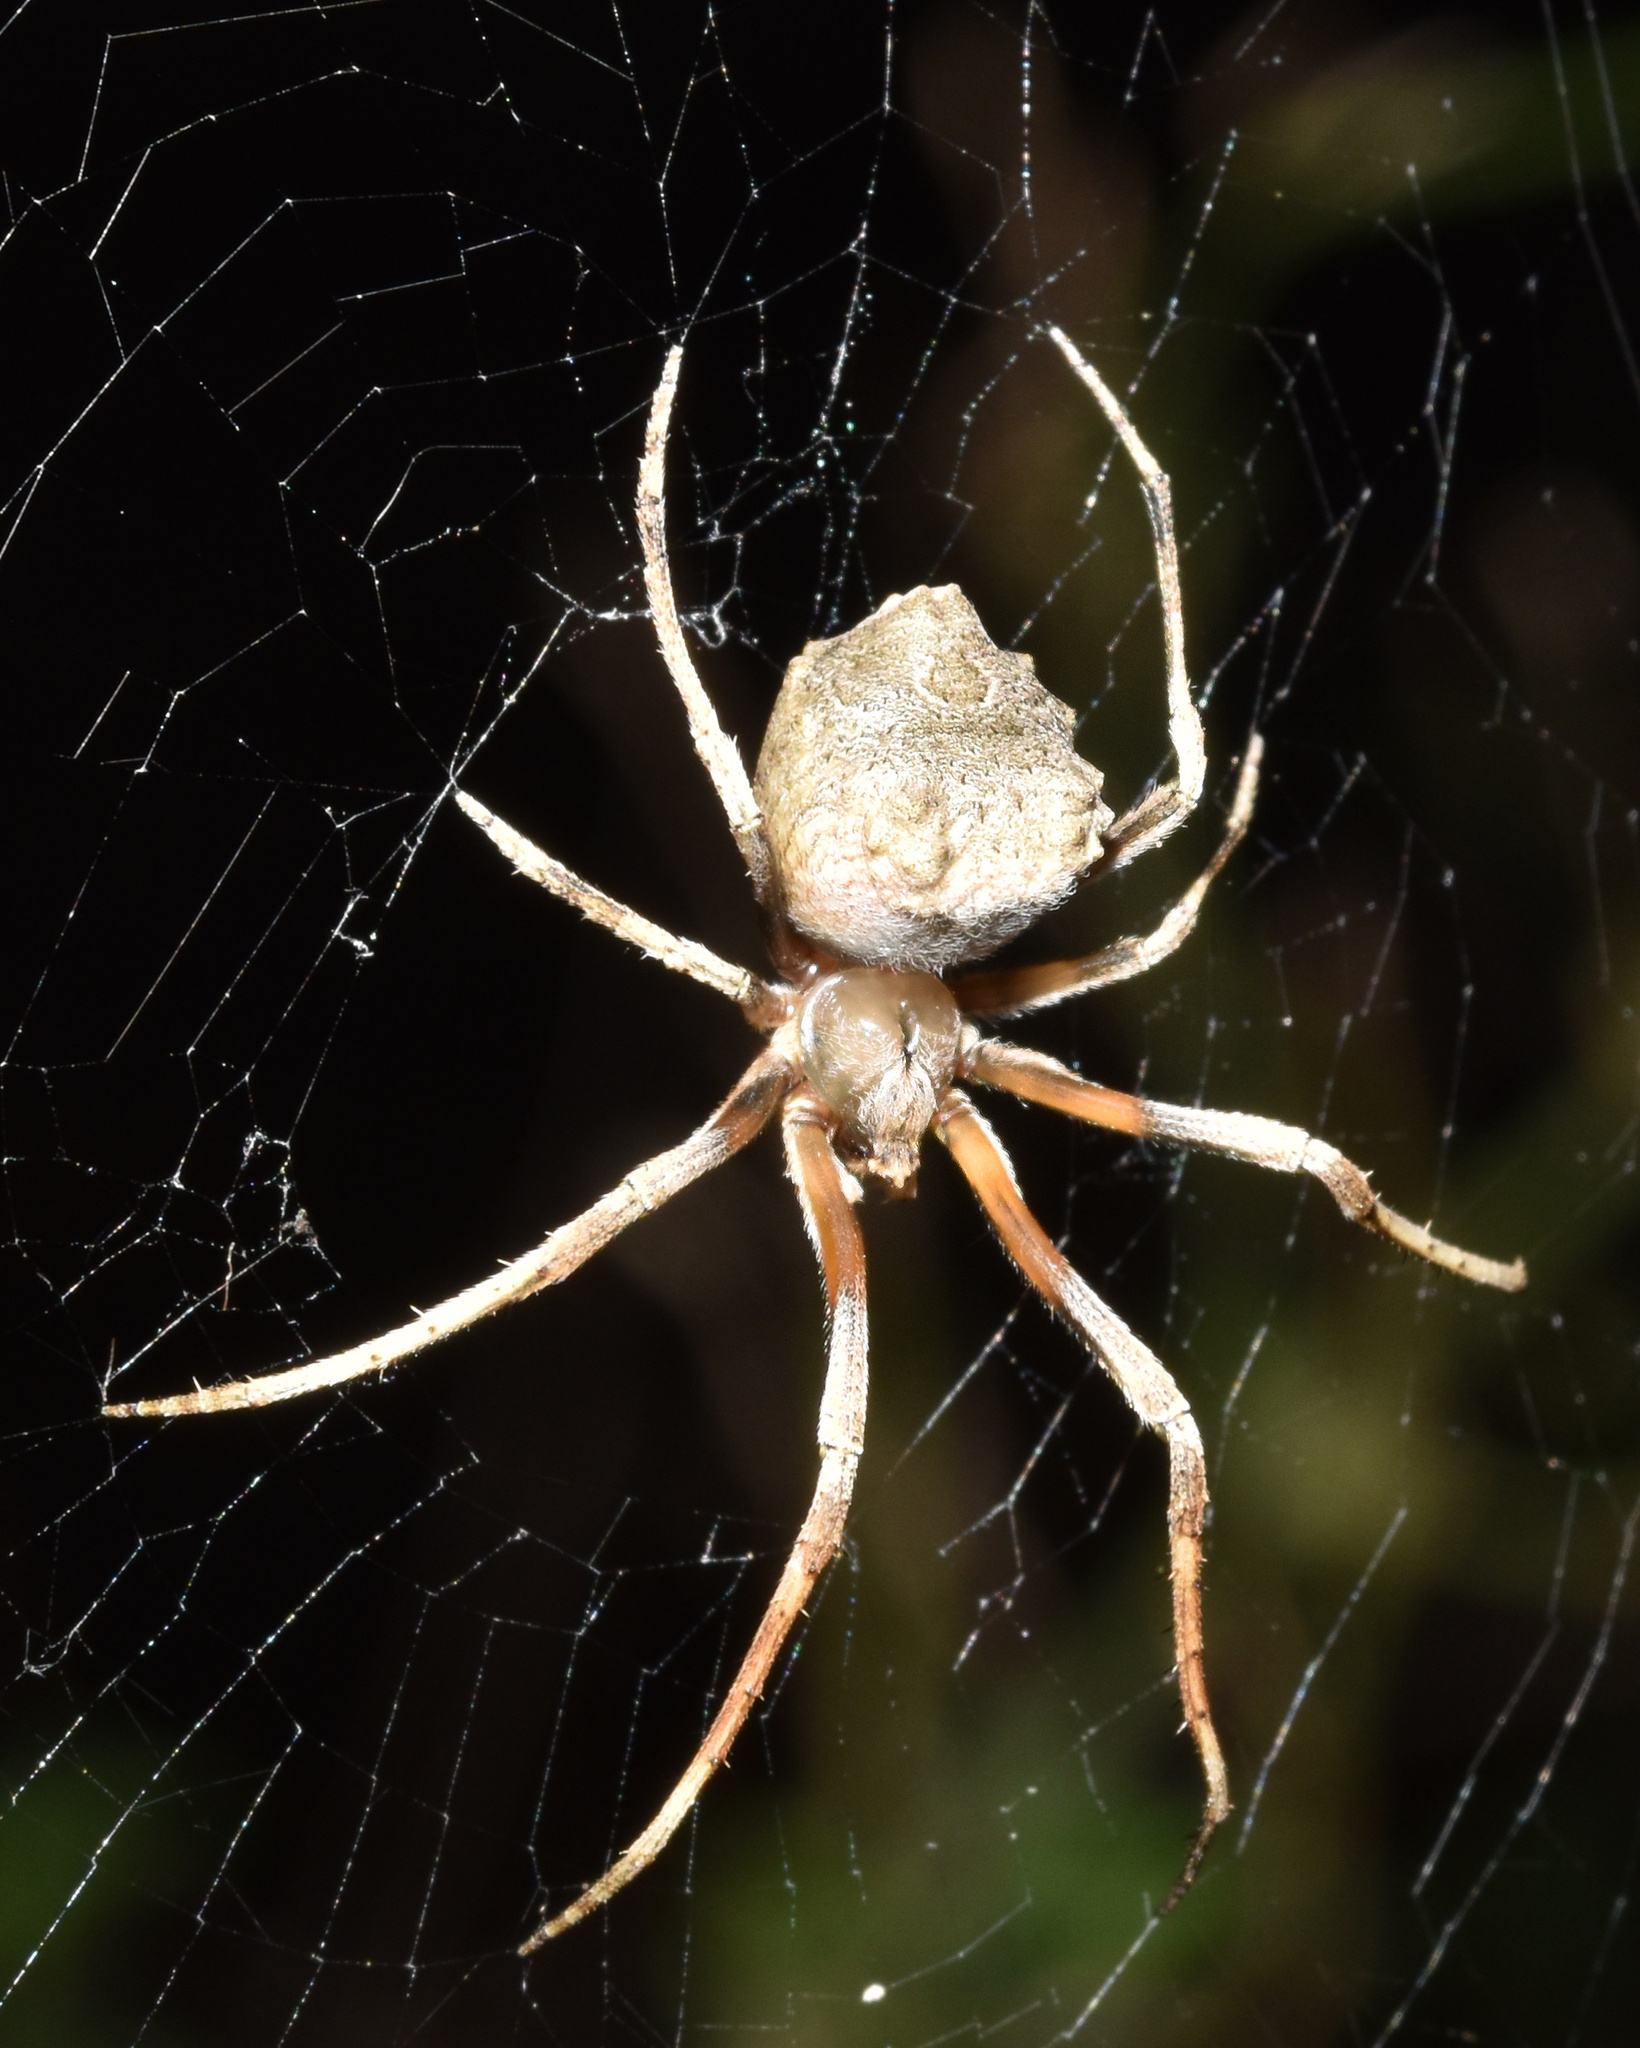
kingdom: Animalia
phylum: Arthropoda
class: Arachnida
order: Araneae
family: Araneidae
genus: Cyphalonotus
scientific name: Cyphalonotus larvatus
